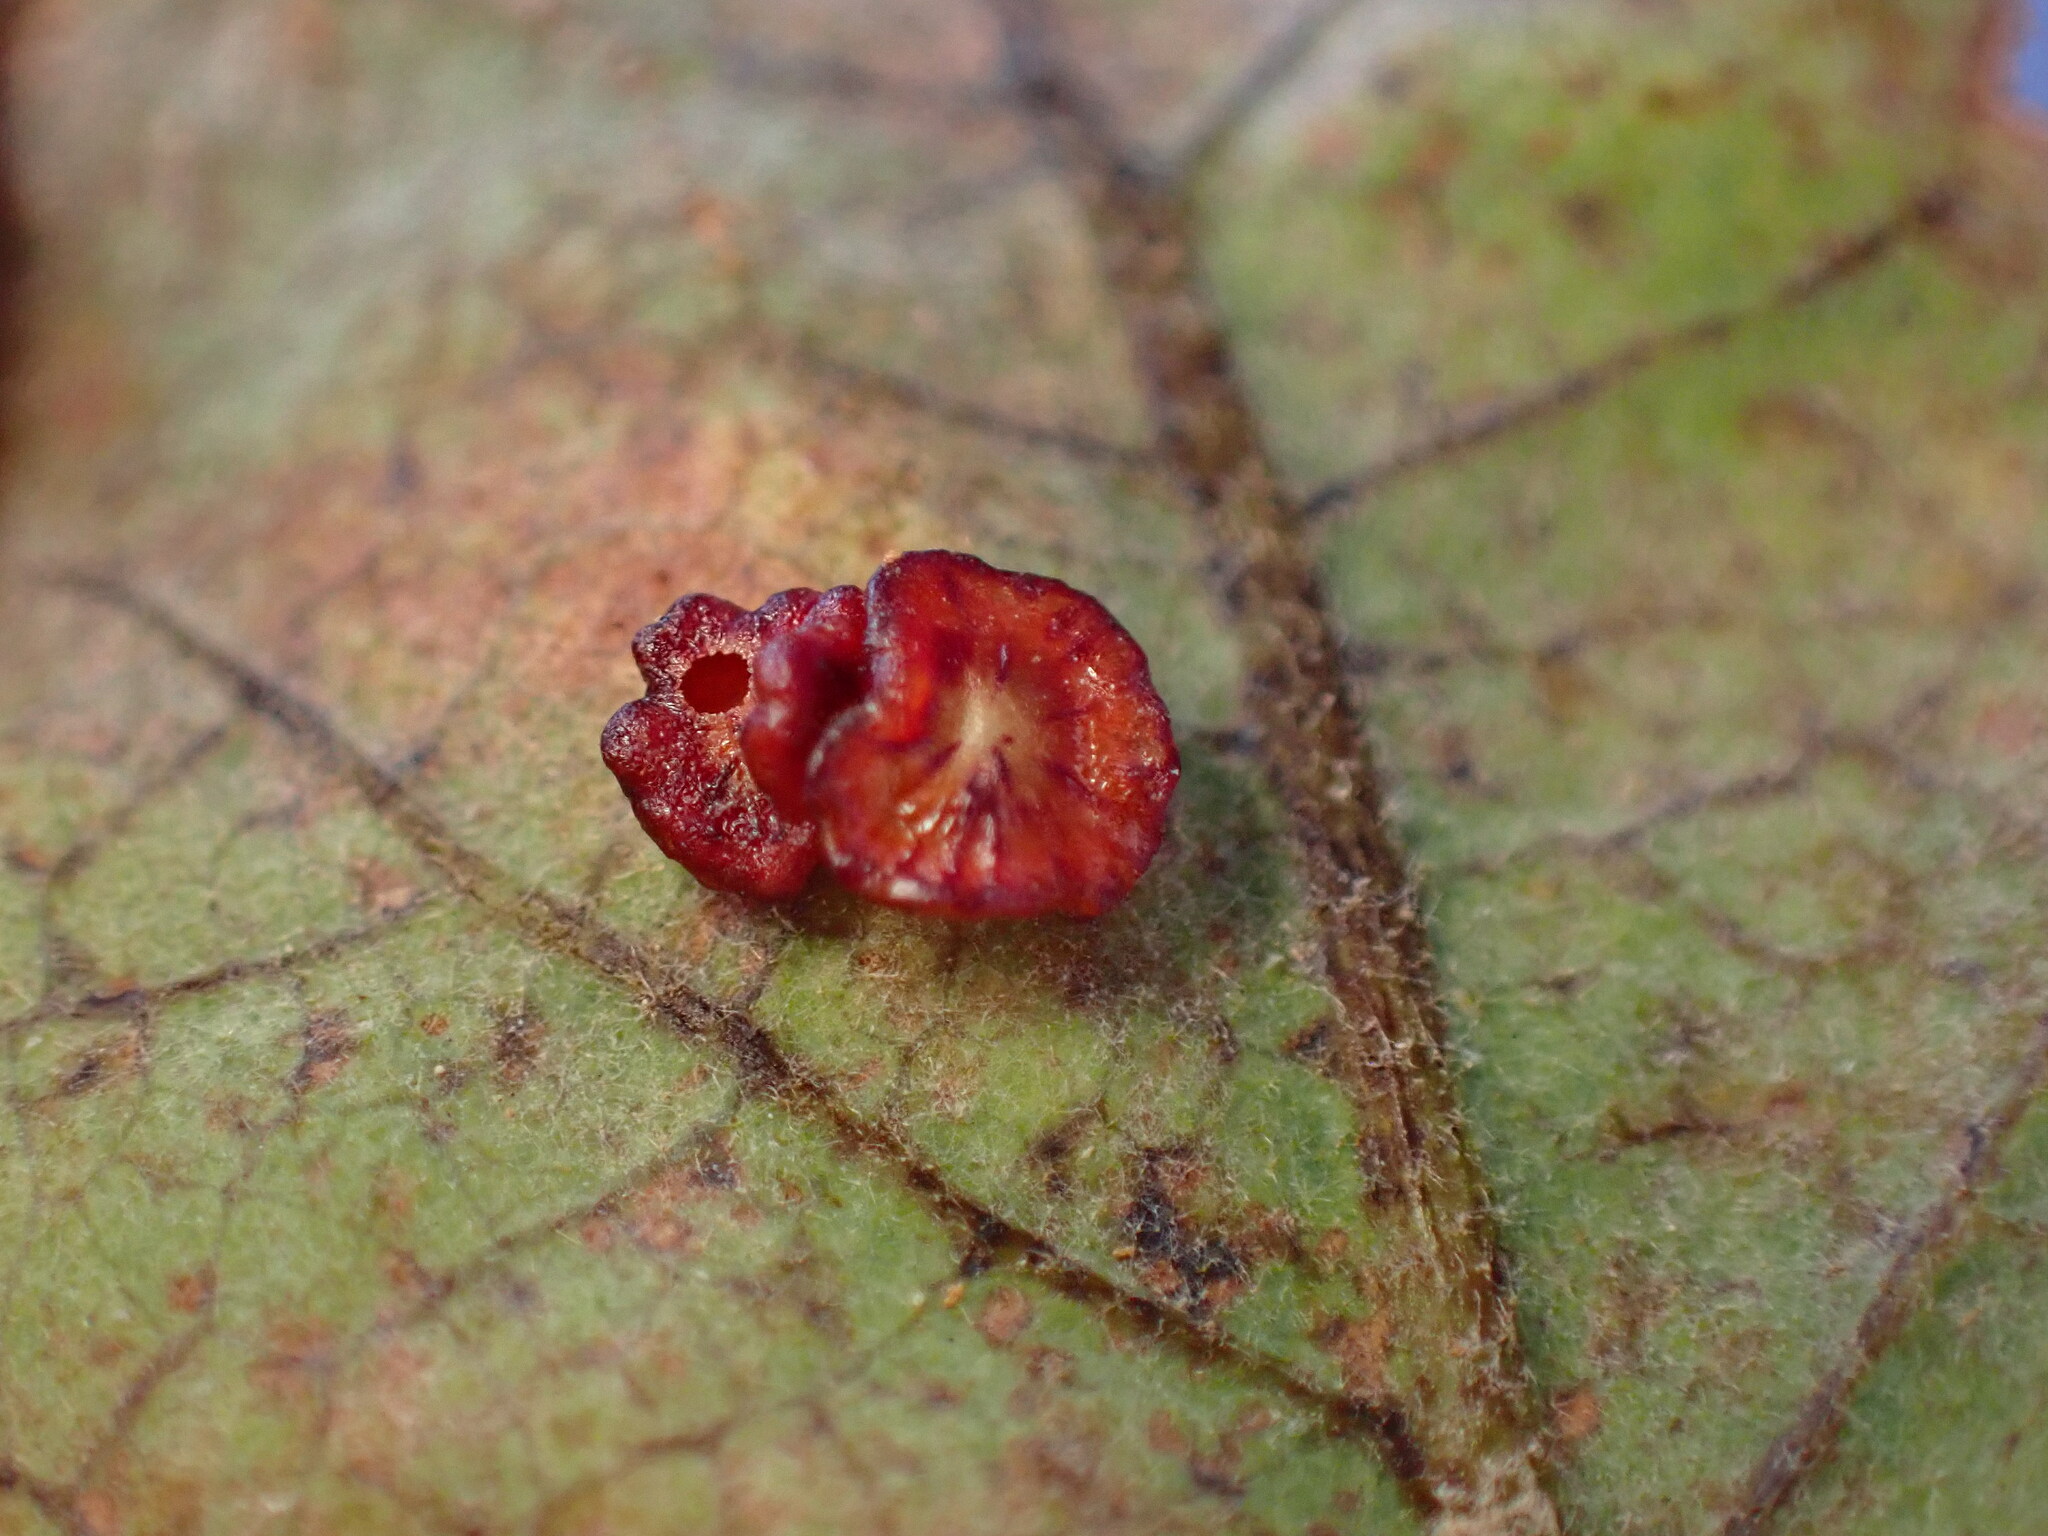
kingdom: Animalia
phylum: Arthropoda
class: Insecta
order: Hymenoptera
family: Cynipidae
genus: Andricus
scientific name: Andricus
